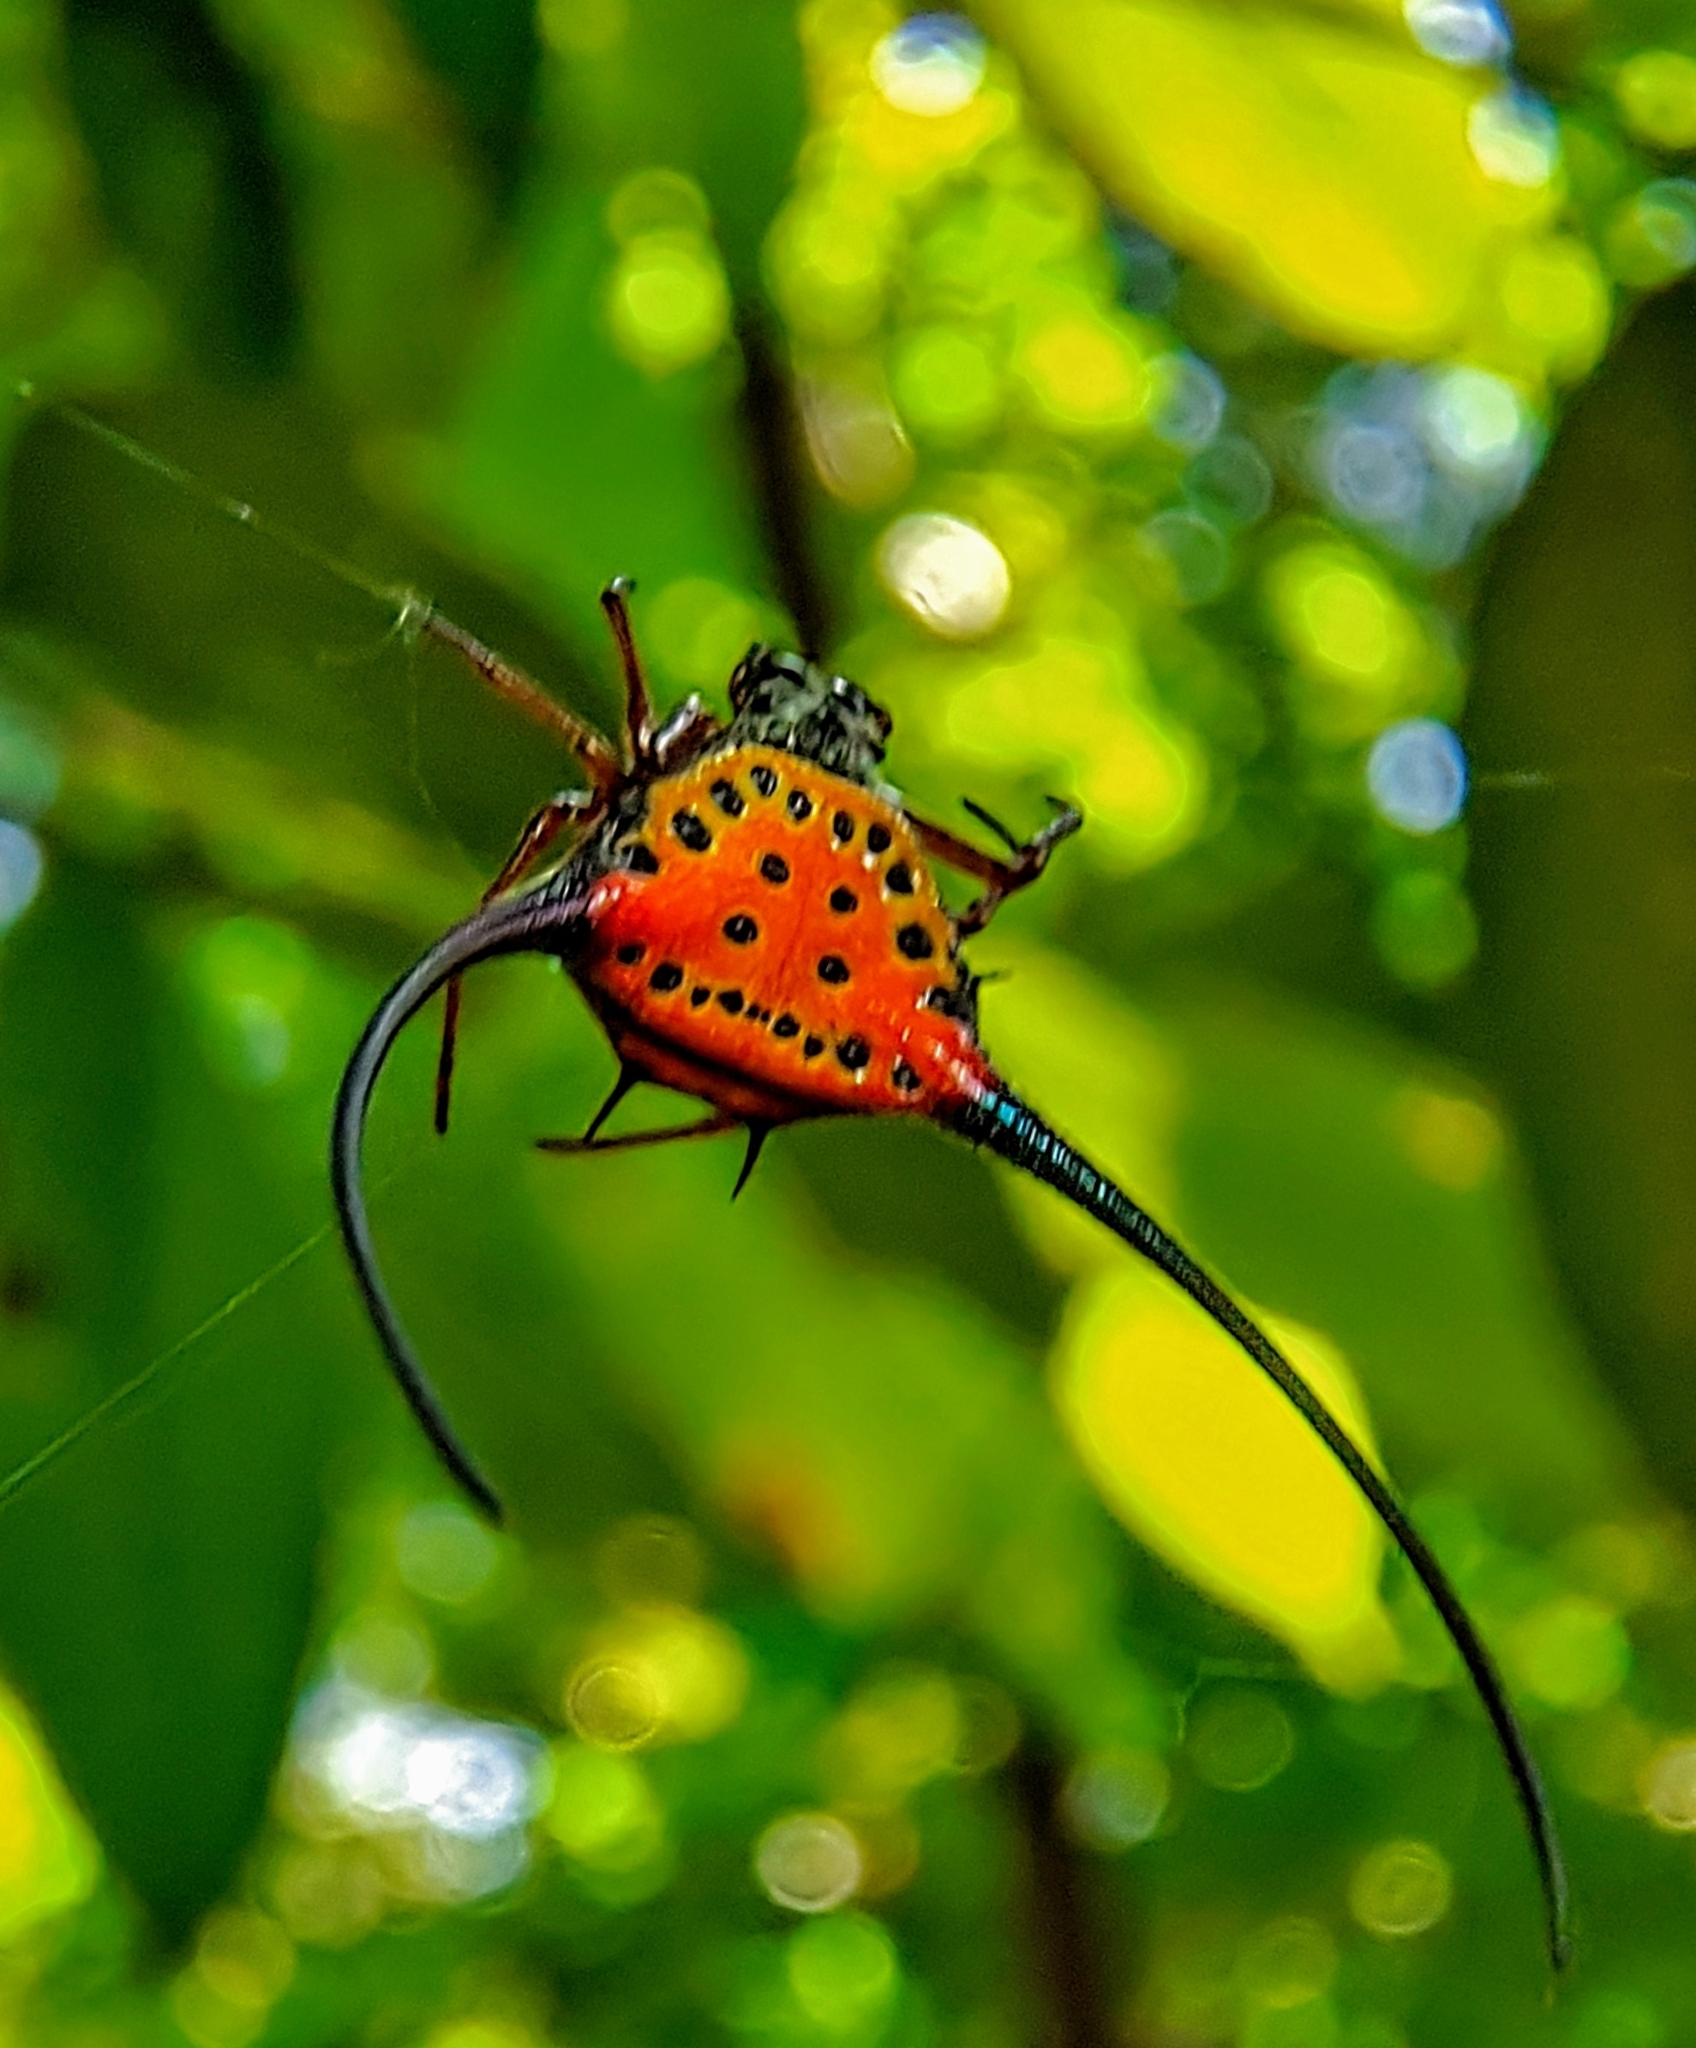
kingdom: Animalia
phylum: Arthropoda
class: Arachnida
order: Araneae
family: Araneidae
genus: Macracantha
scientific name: Macracantha arcuata
